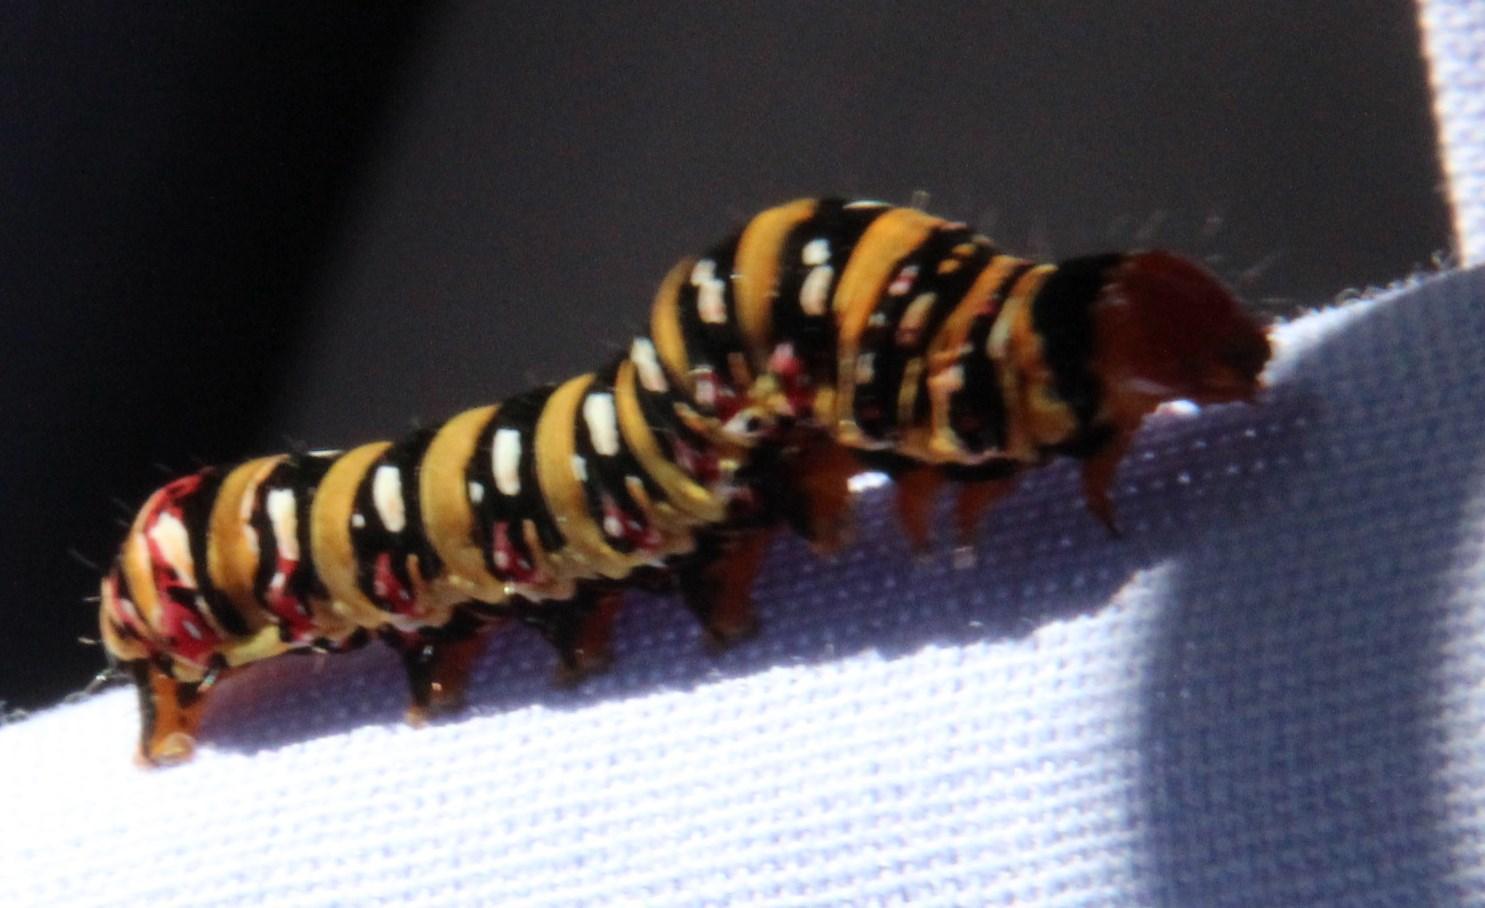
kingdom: Animalia
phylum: Arthropoda
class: Insecta
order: Lepidoptera
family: Noctuidae
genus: Klugeana
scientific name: Klugeana philoxalis
